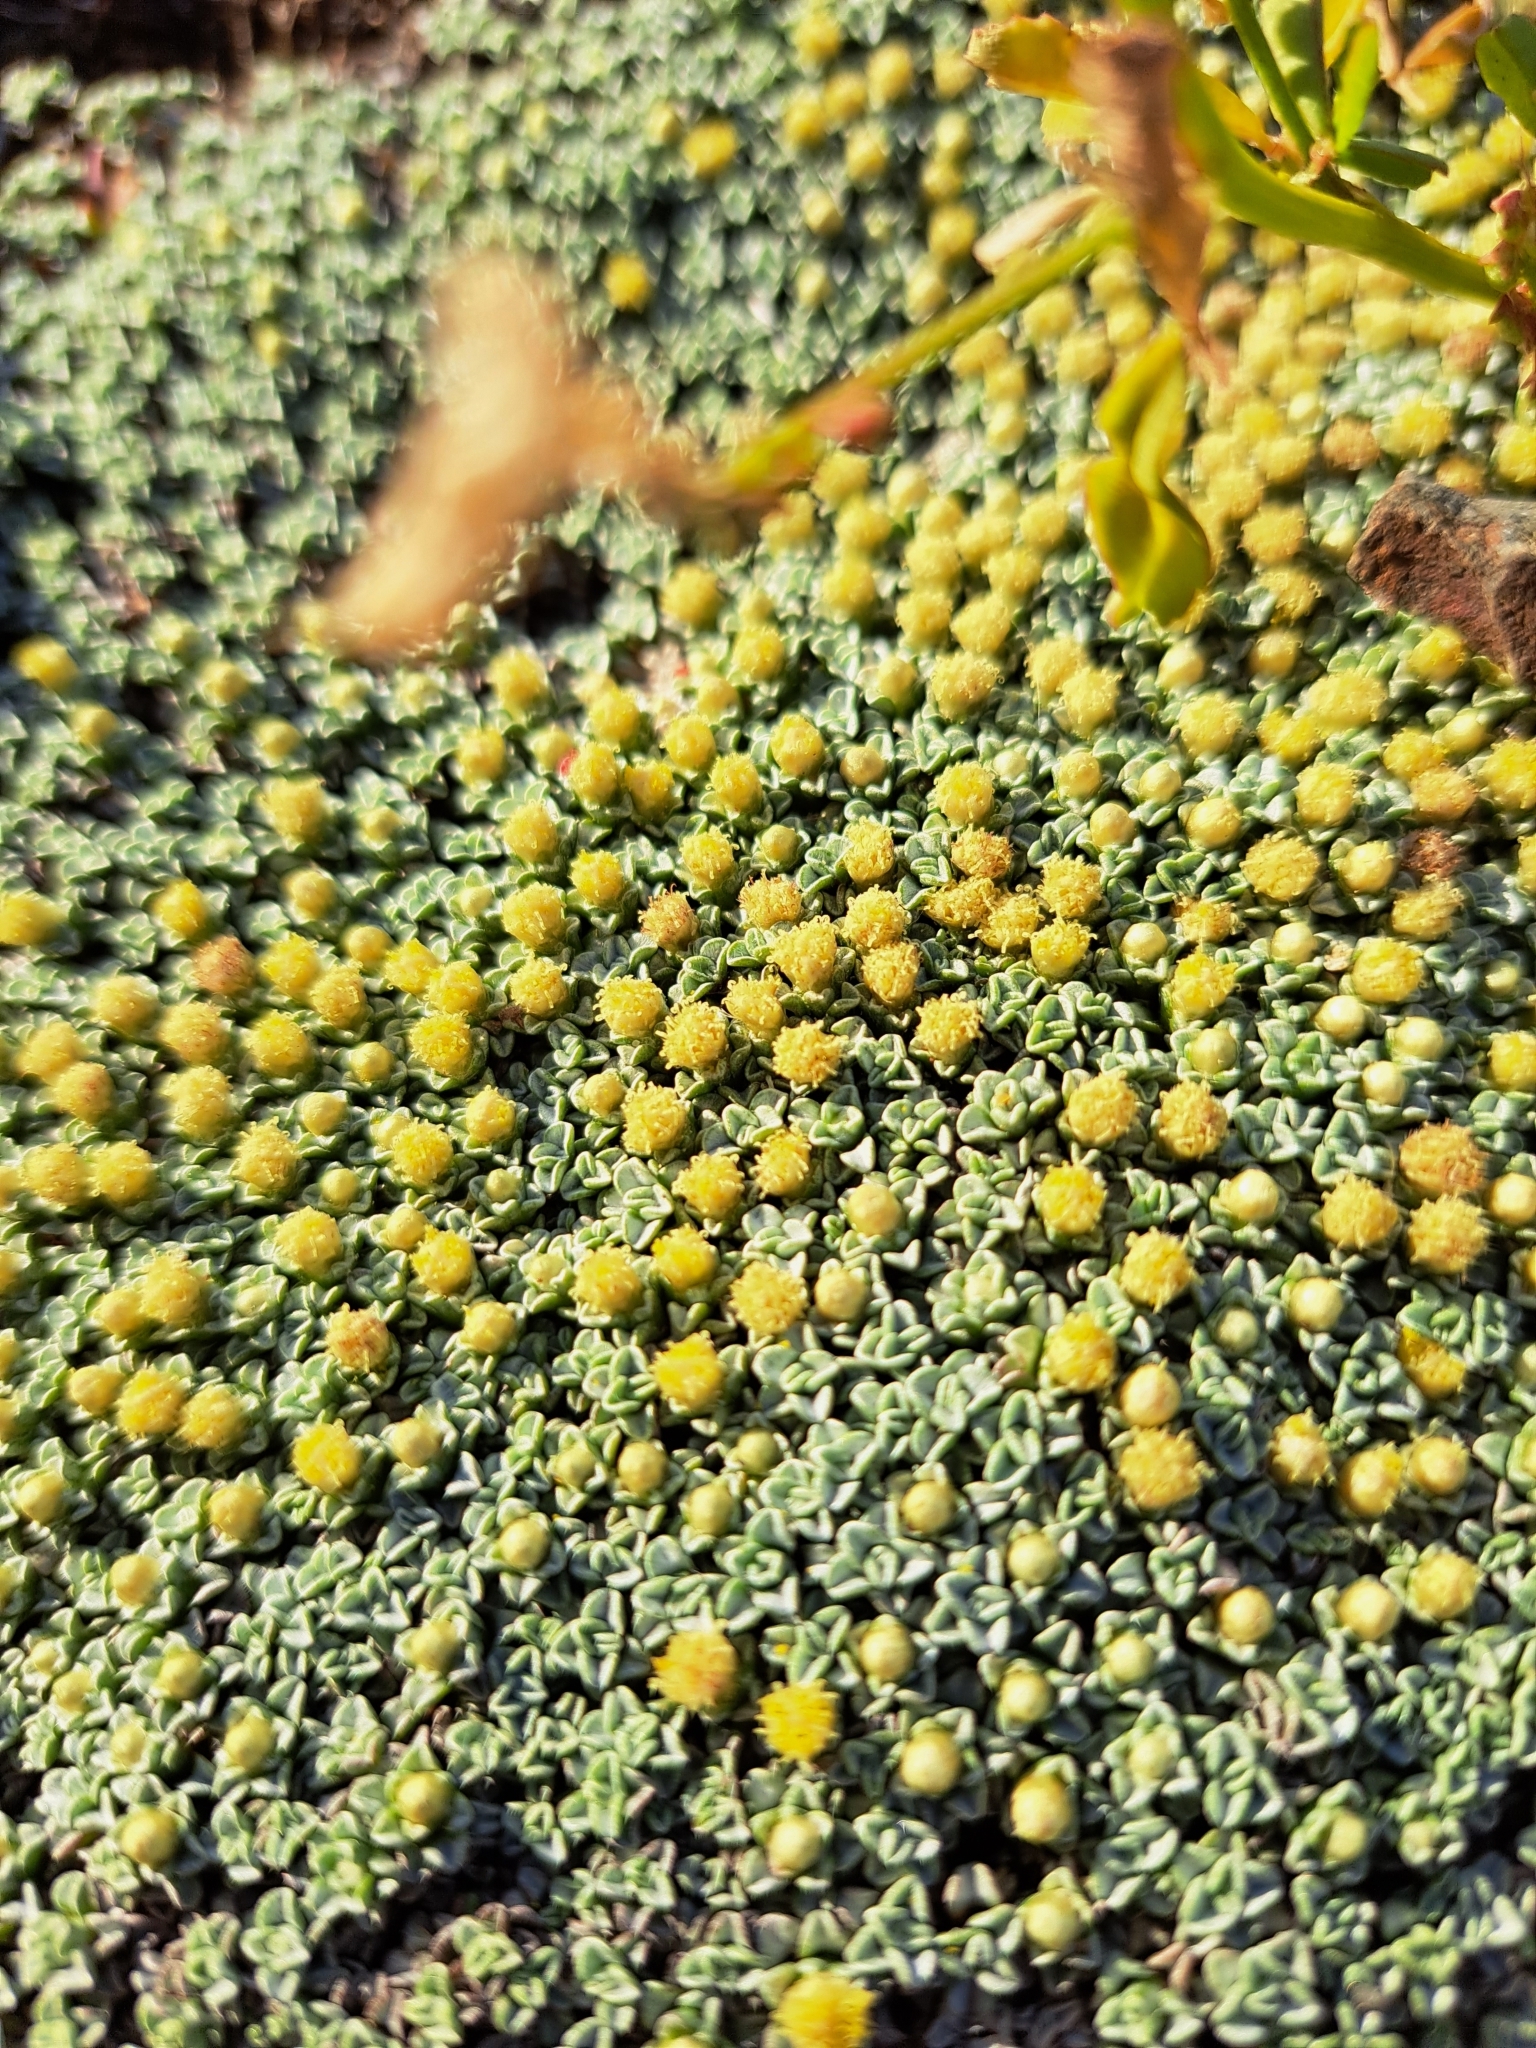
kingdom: Plantae
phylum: Tracheophyta
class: Magnoliopsida
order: Asterales
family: Asteraceae
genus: Raoulia
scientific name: Raoulia australis
